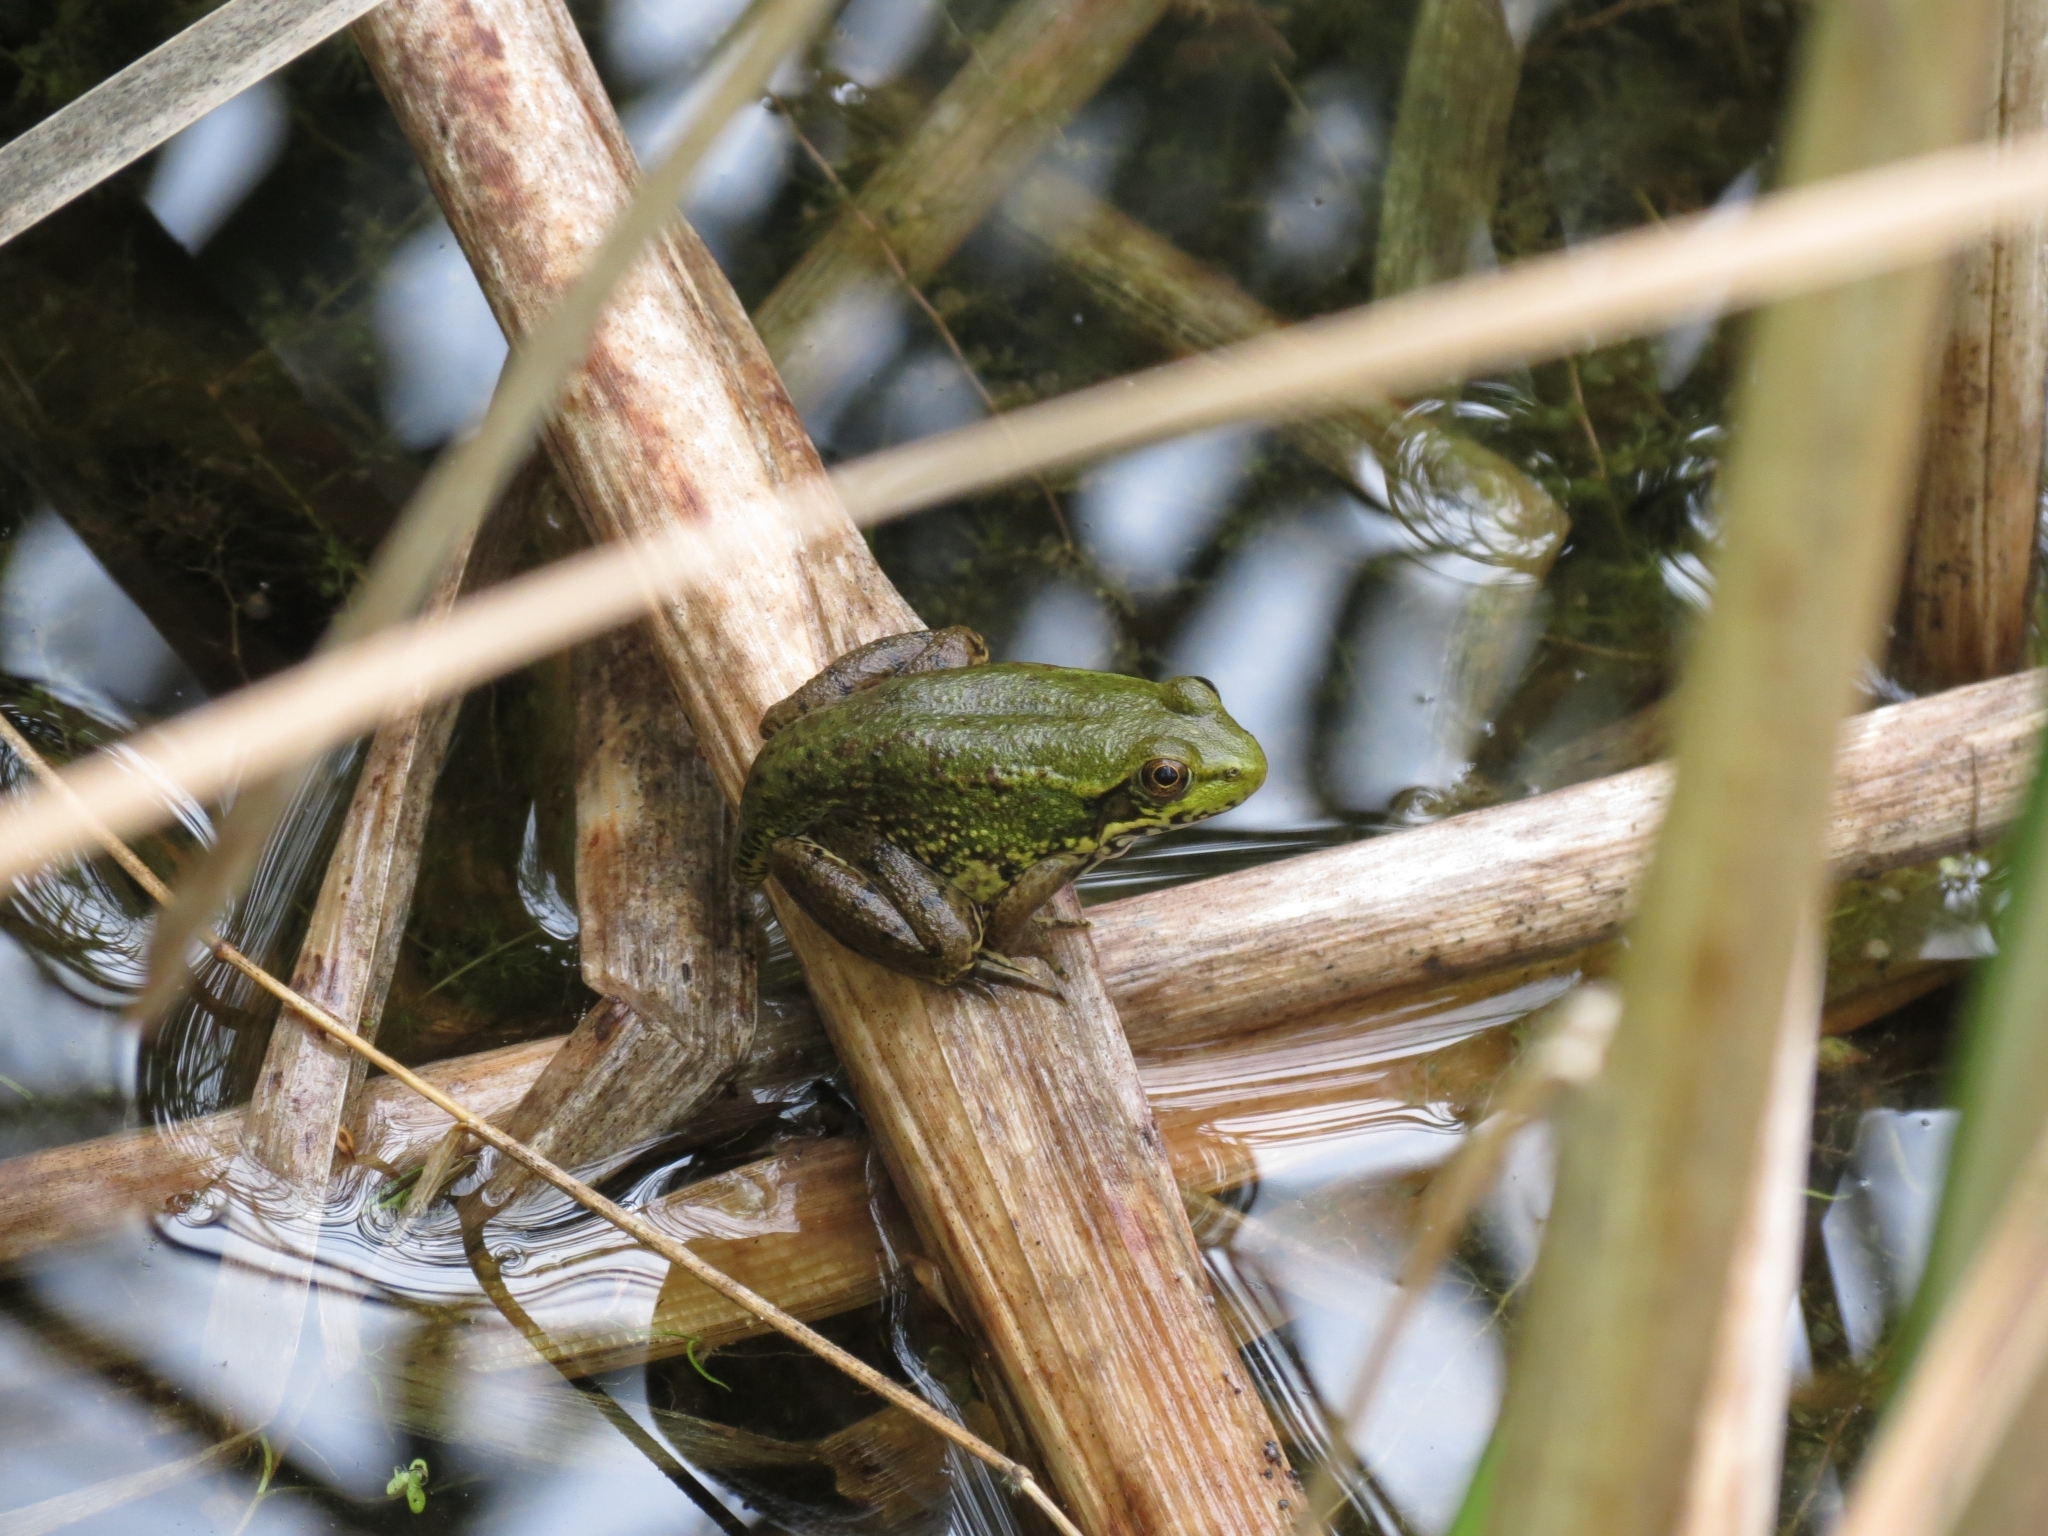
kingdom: Animalia
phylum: Chordata
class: Amphibia
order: Anura
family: Ranidae
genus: Lithobates
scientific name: Lithobates clamitans
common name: Green frog
